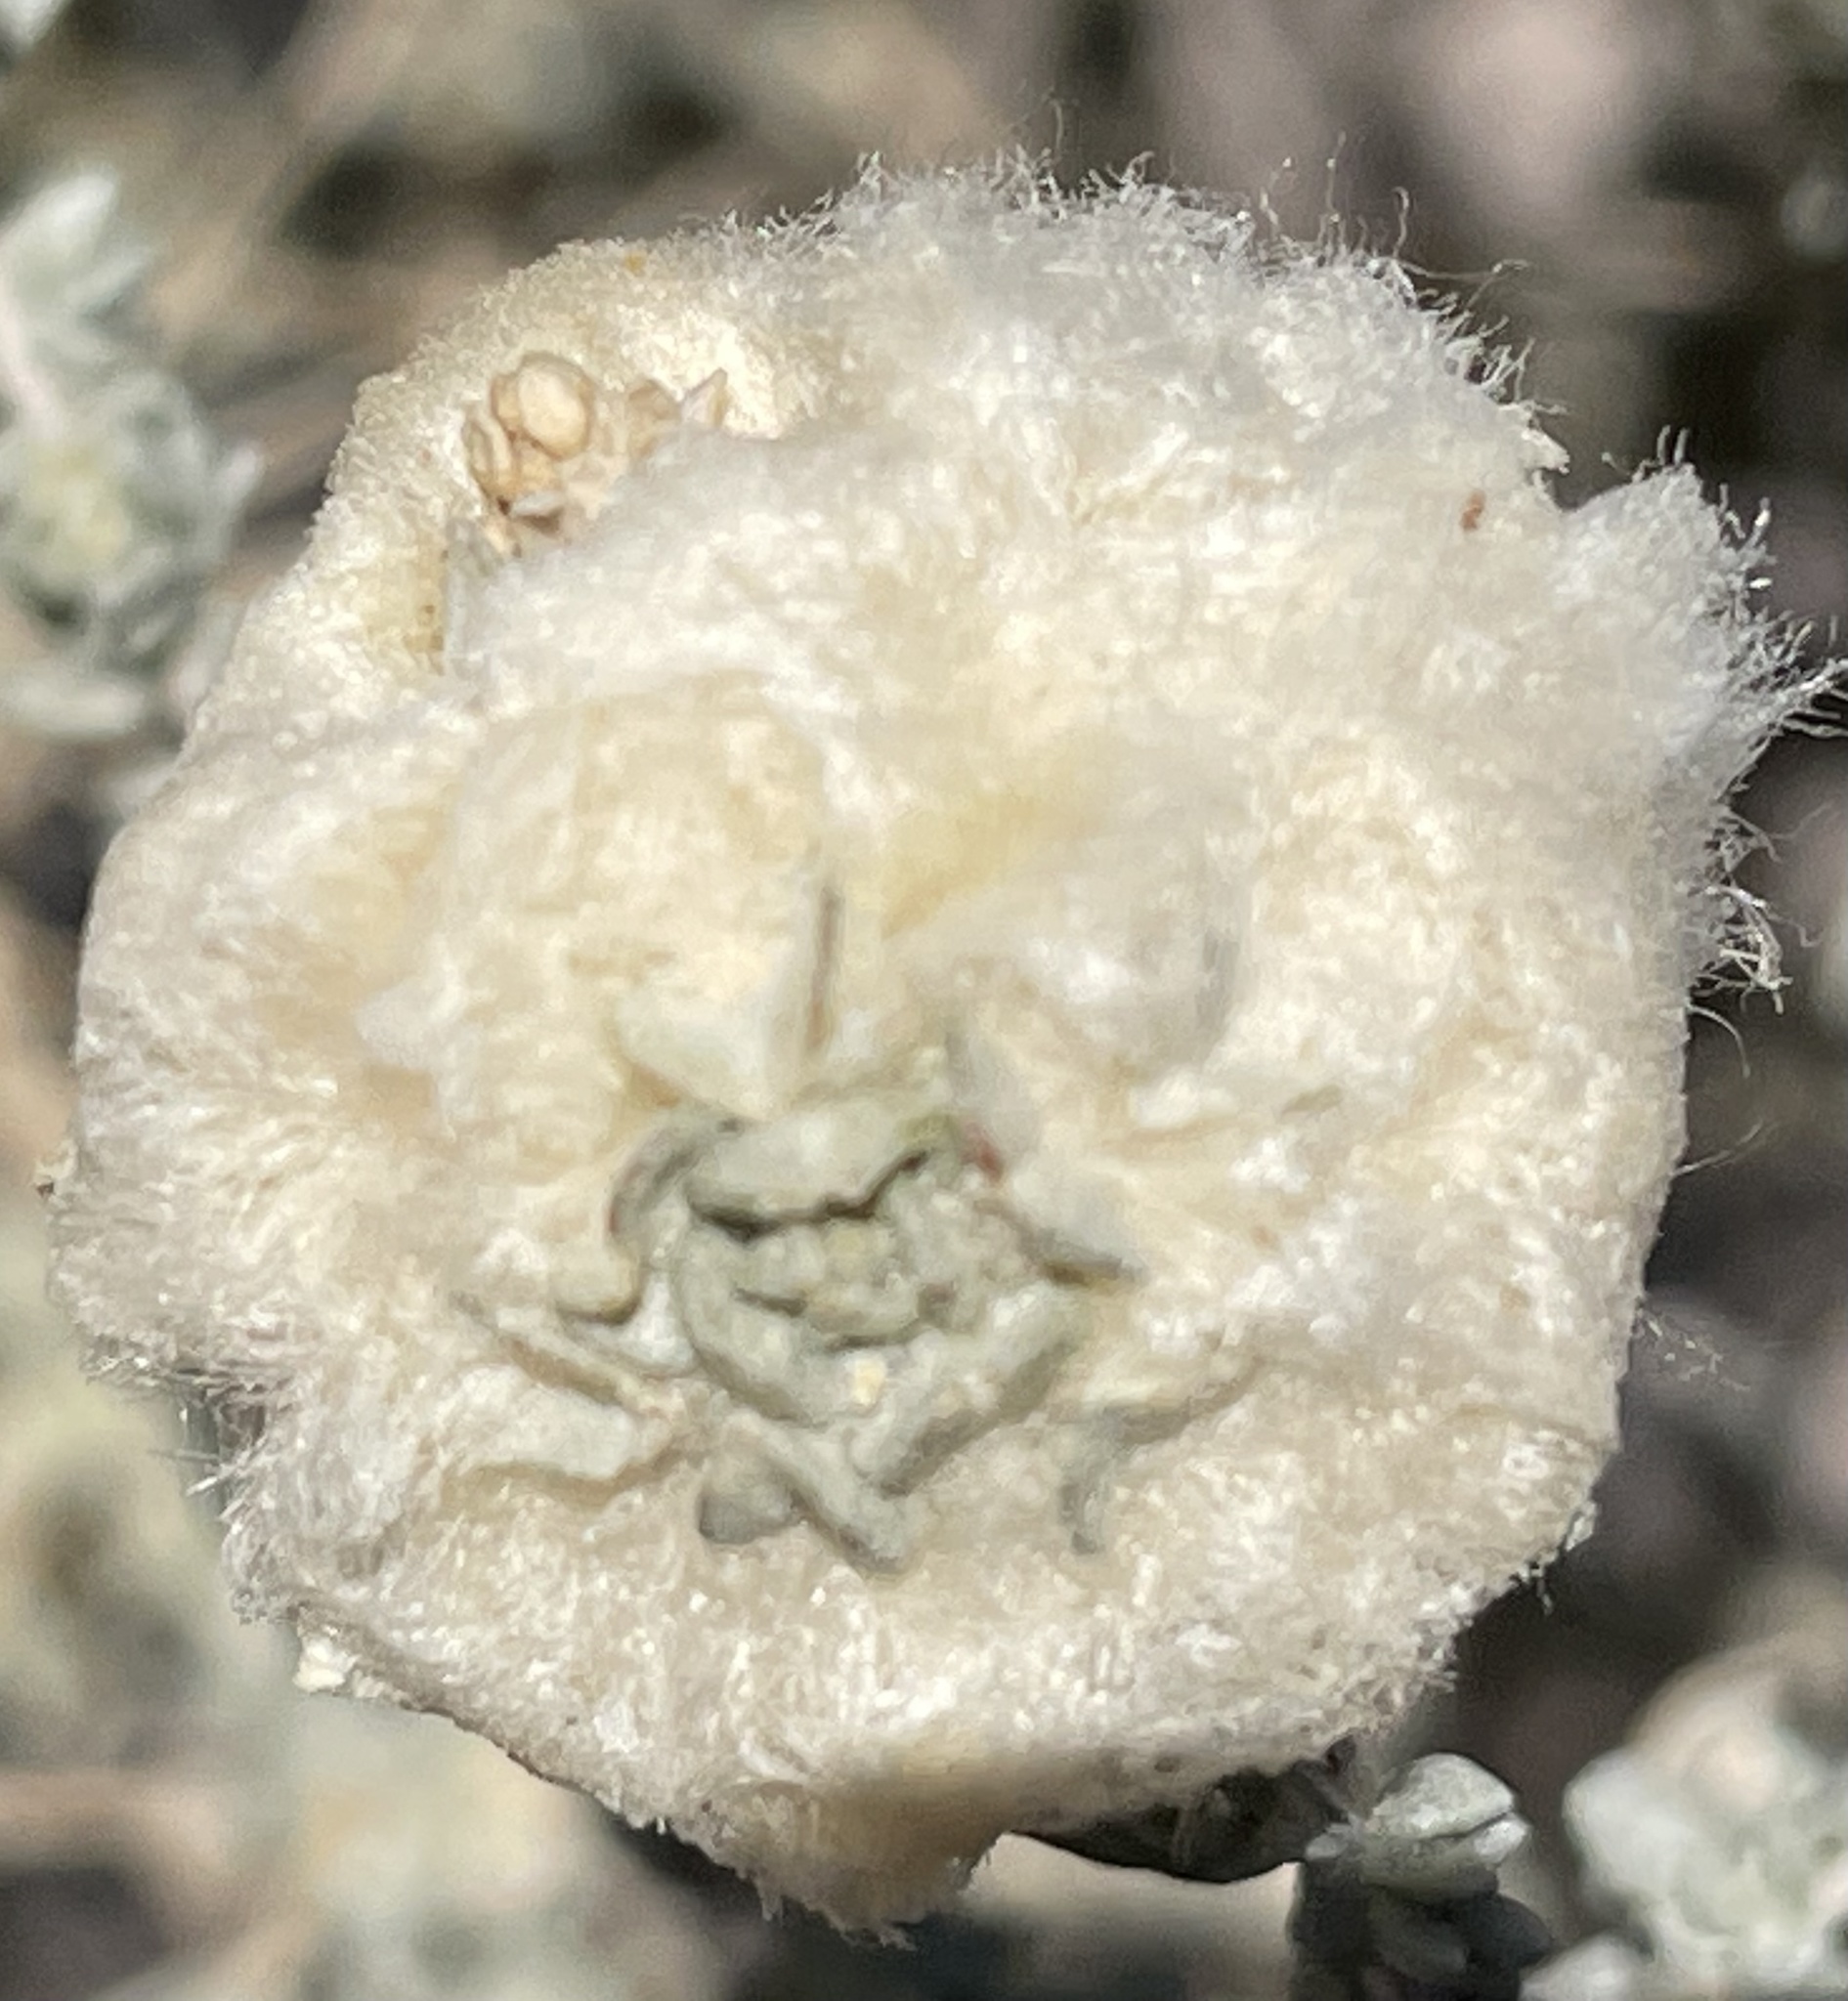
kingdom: Animalia
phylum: Arthropoda
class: Insecta
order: Diptera
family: Cecidomyiidae
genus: Asphondylia
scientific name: Asphondylia floccosa
